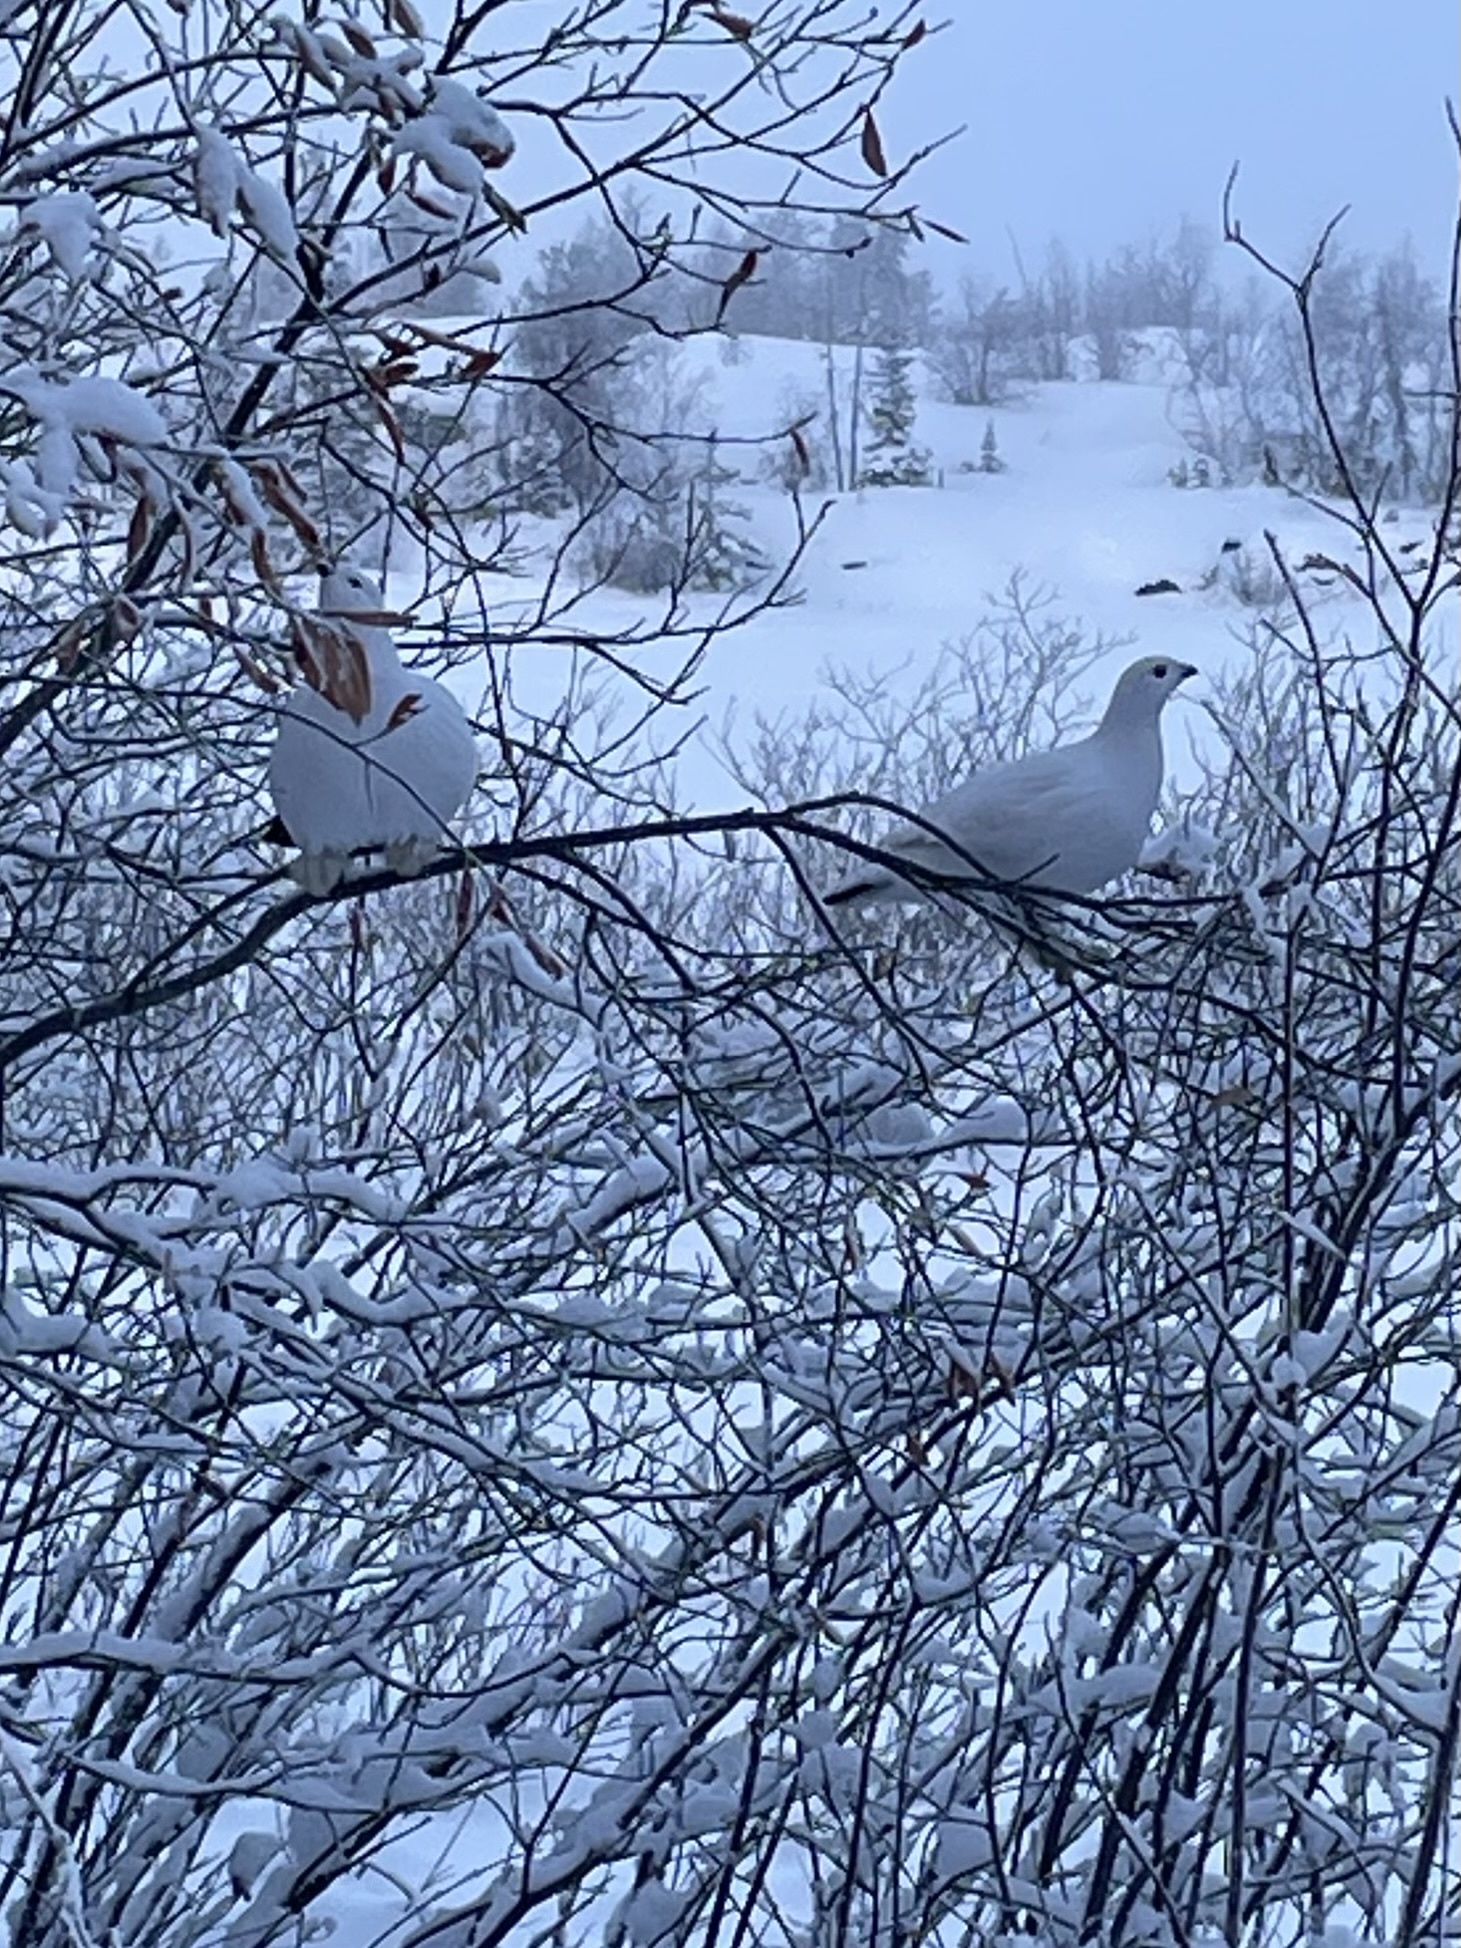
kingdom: Animalia
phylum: Chordata
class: Aves
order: Galliformes
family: Phasianidae
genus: Lagopus
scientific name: Lagopus lagopus
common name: Willow ptarmigan
